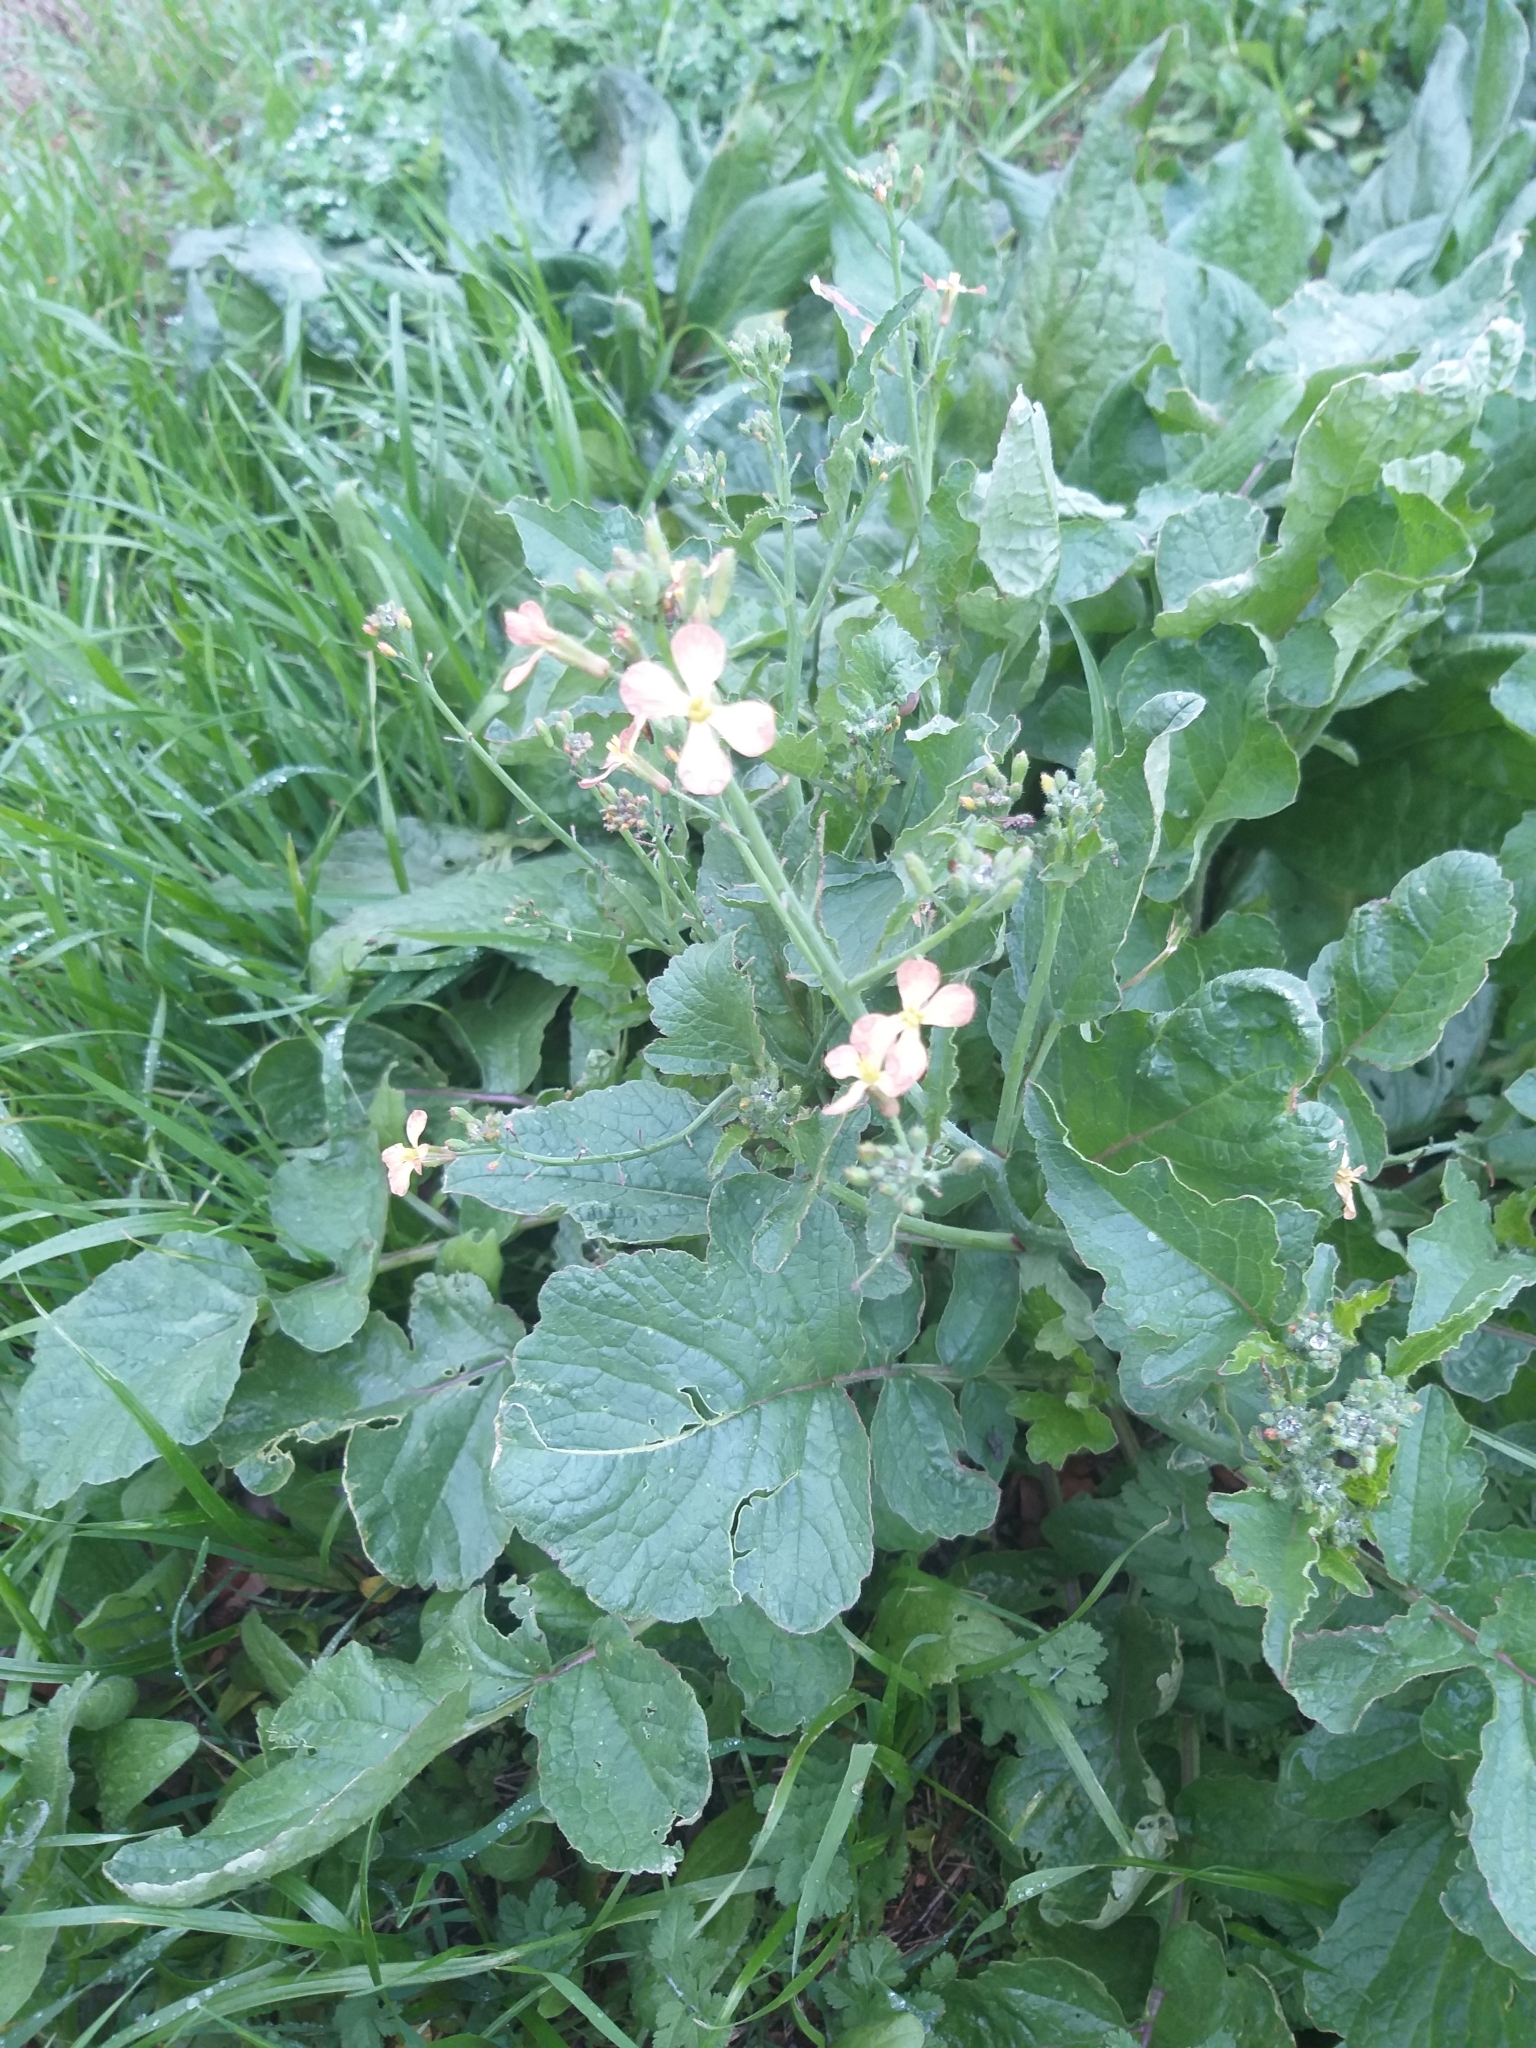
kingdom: Plantae
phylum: Tracheophyta
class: Magnoliopsida
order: Brassicales
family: Brassicaceae
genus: Raphanus
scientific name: Raphanus raphanistrum
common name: Wild radish
